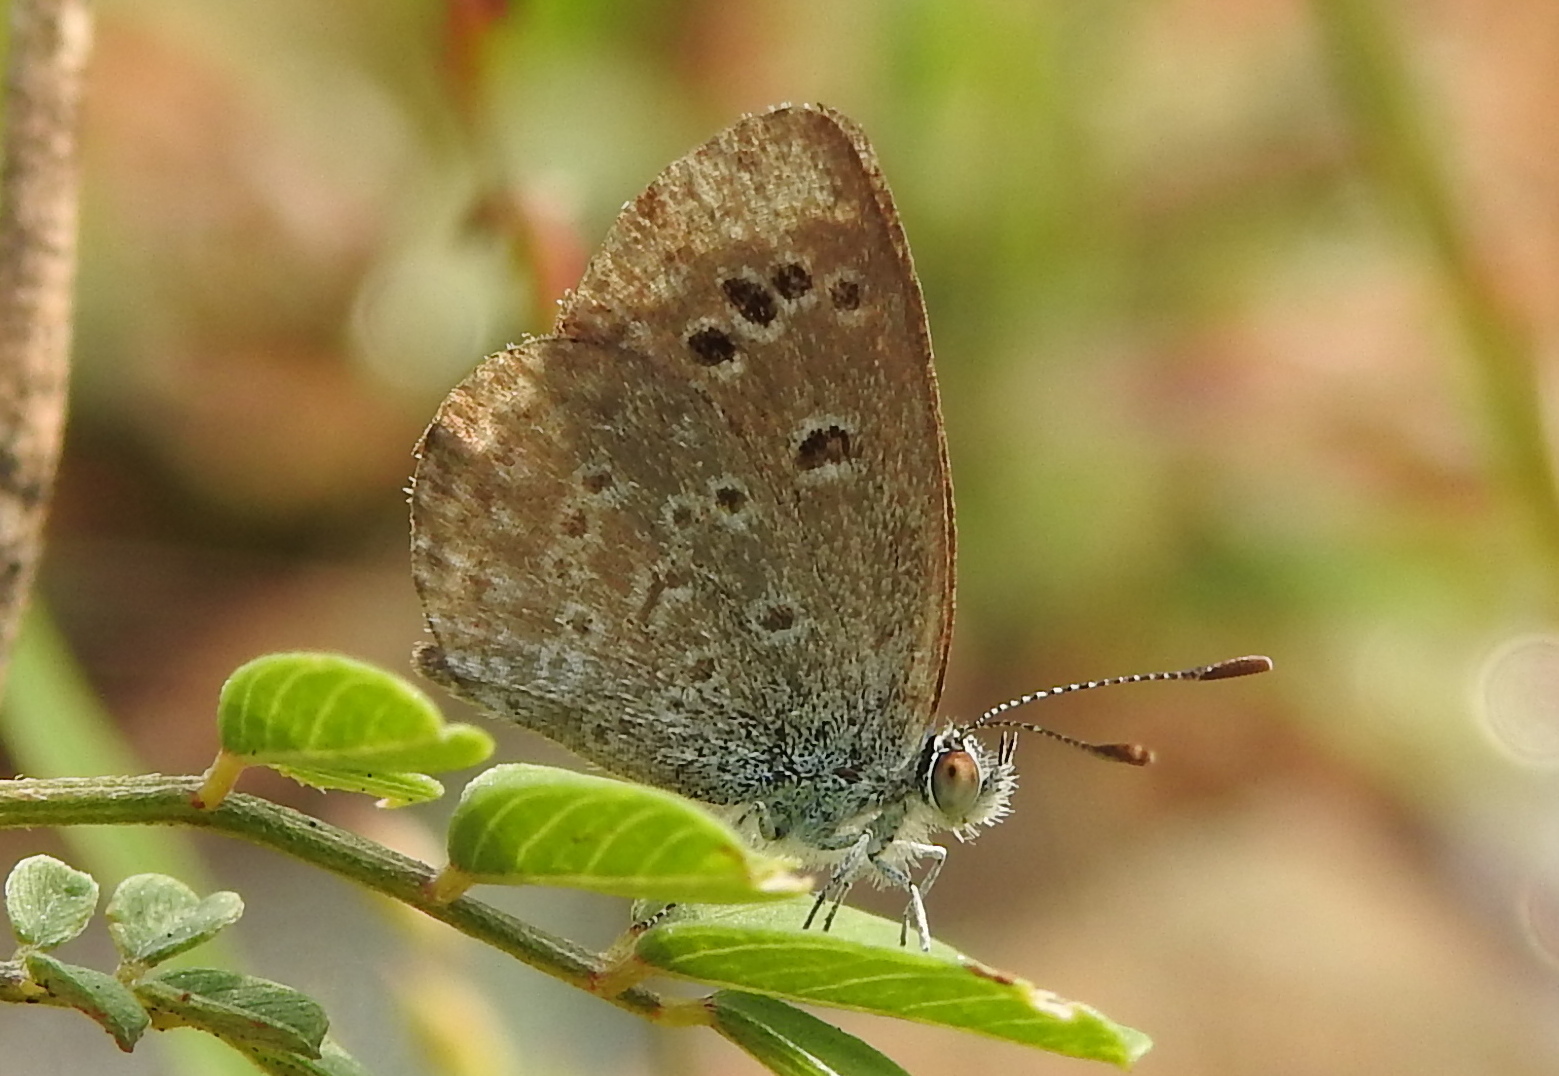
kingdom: Animalia
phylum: Arthropoda
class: Insecta
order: Lepidoptera
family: Lycaenidae
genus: Zizina
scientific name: Zizina otis
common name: Lesser grass blue
